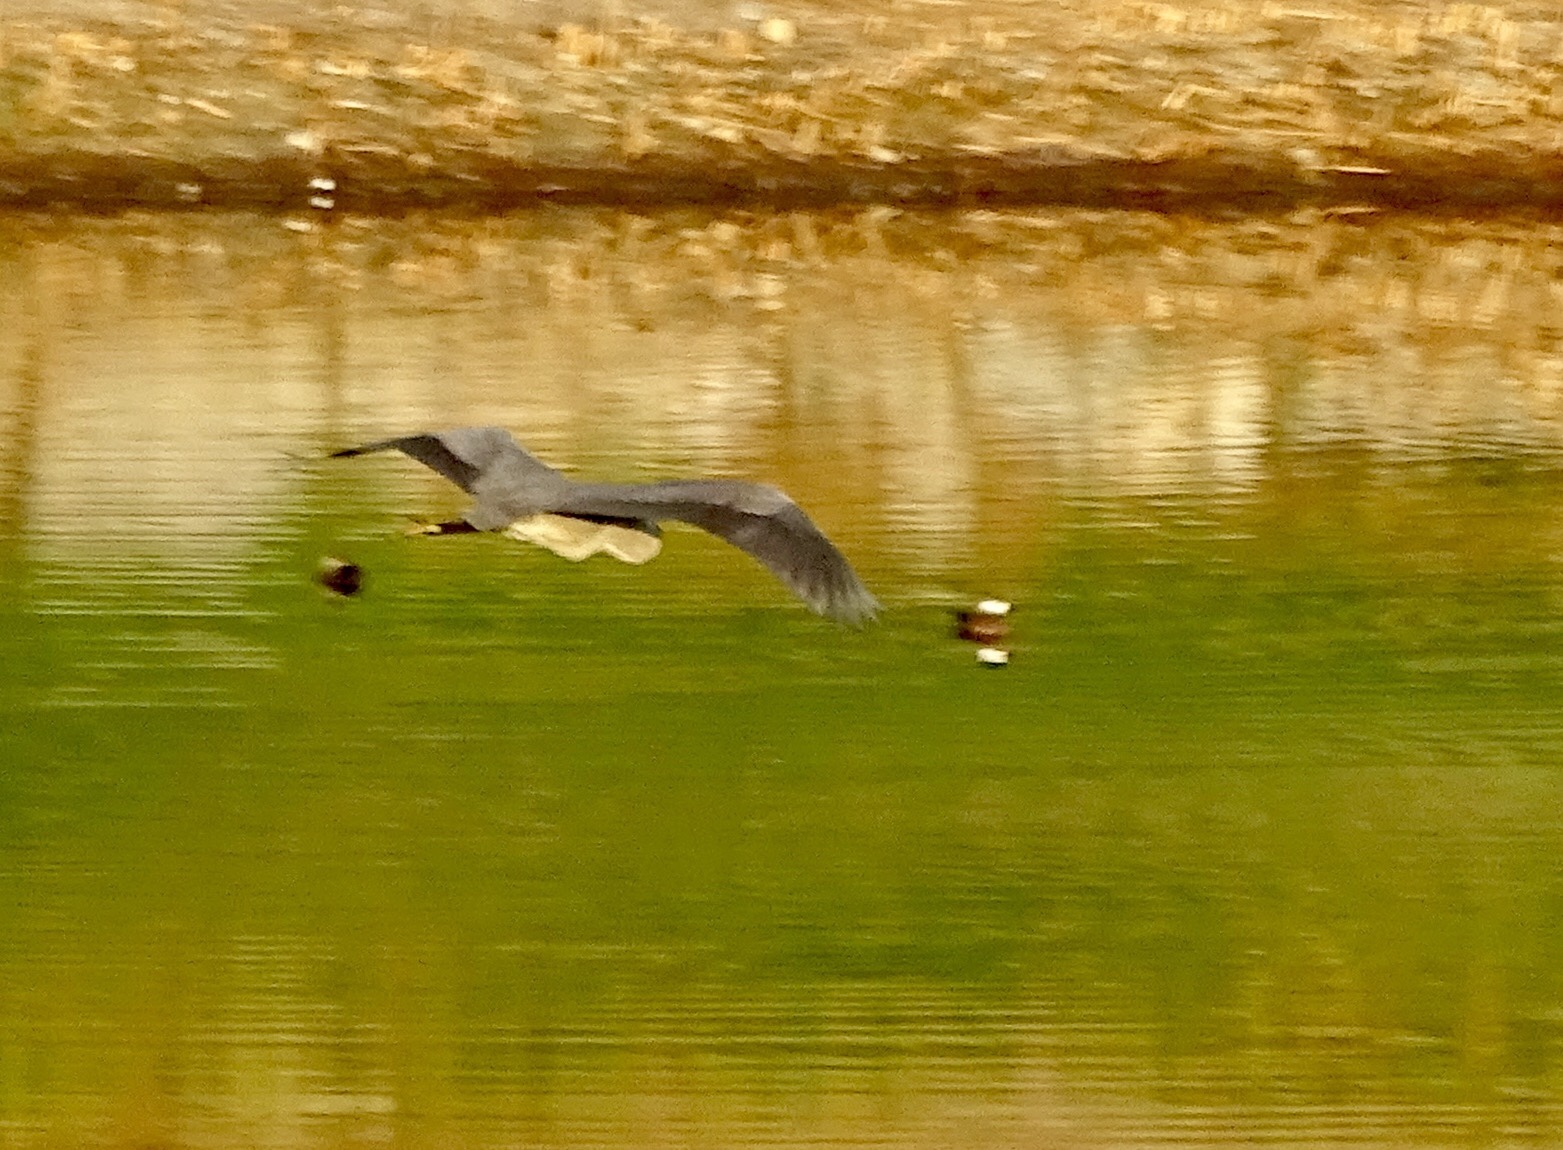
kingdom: Animalia
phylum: Chordata
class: Aves
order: Pelecaniformes
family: Ardeidae
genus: Ardea
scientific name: Ardea herodias
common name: Great blue heron
